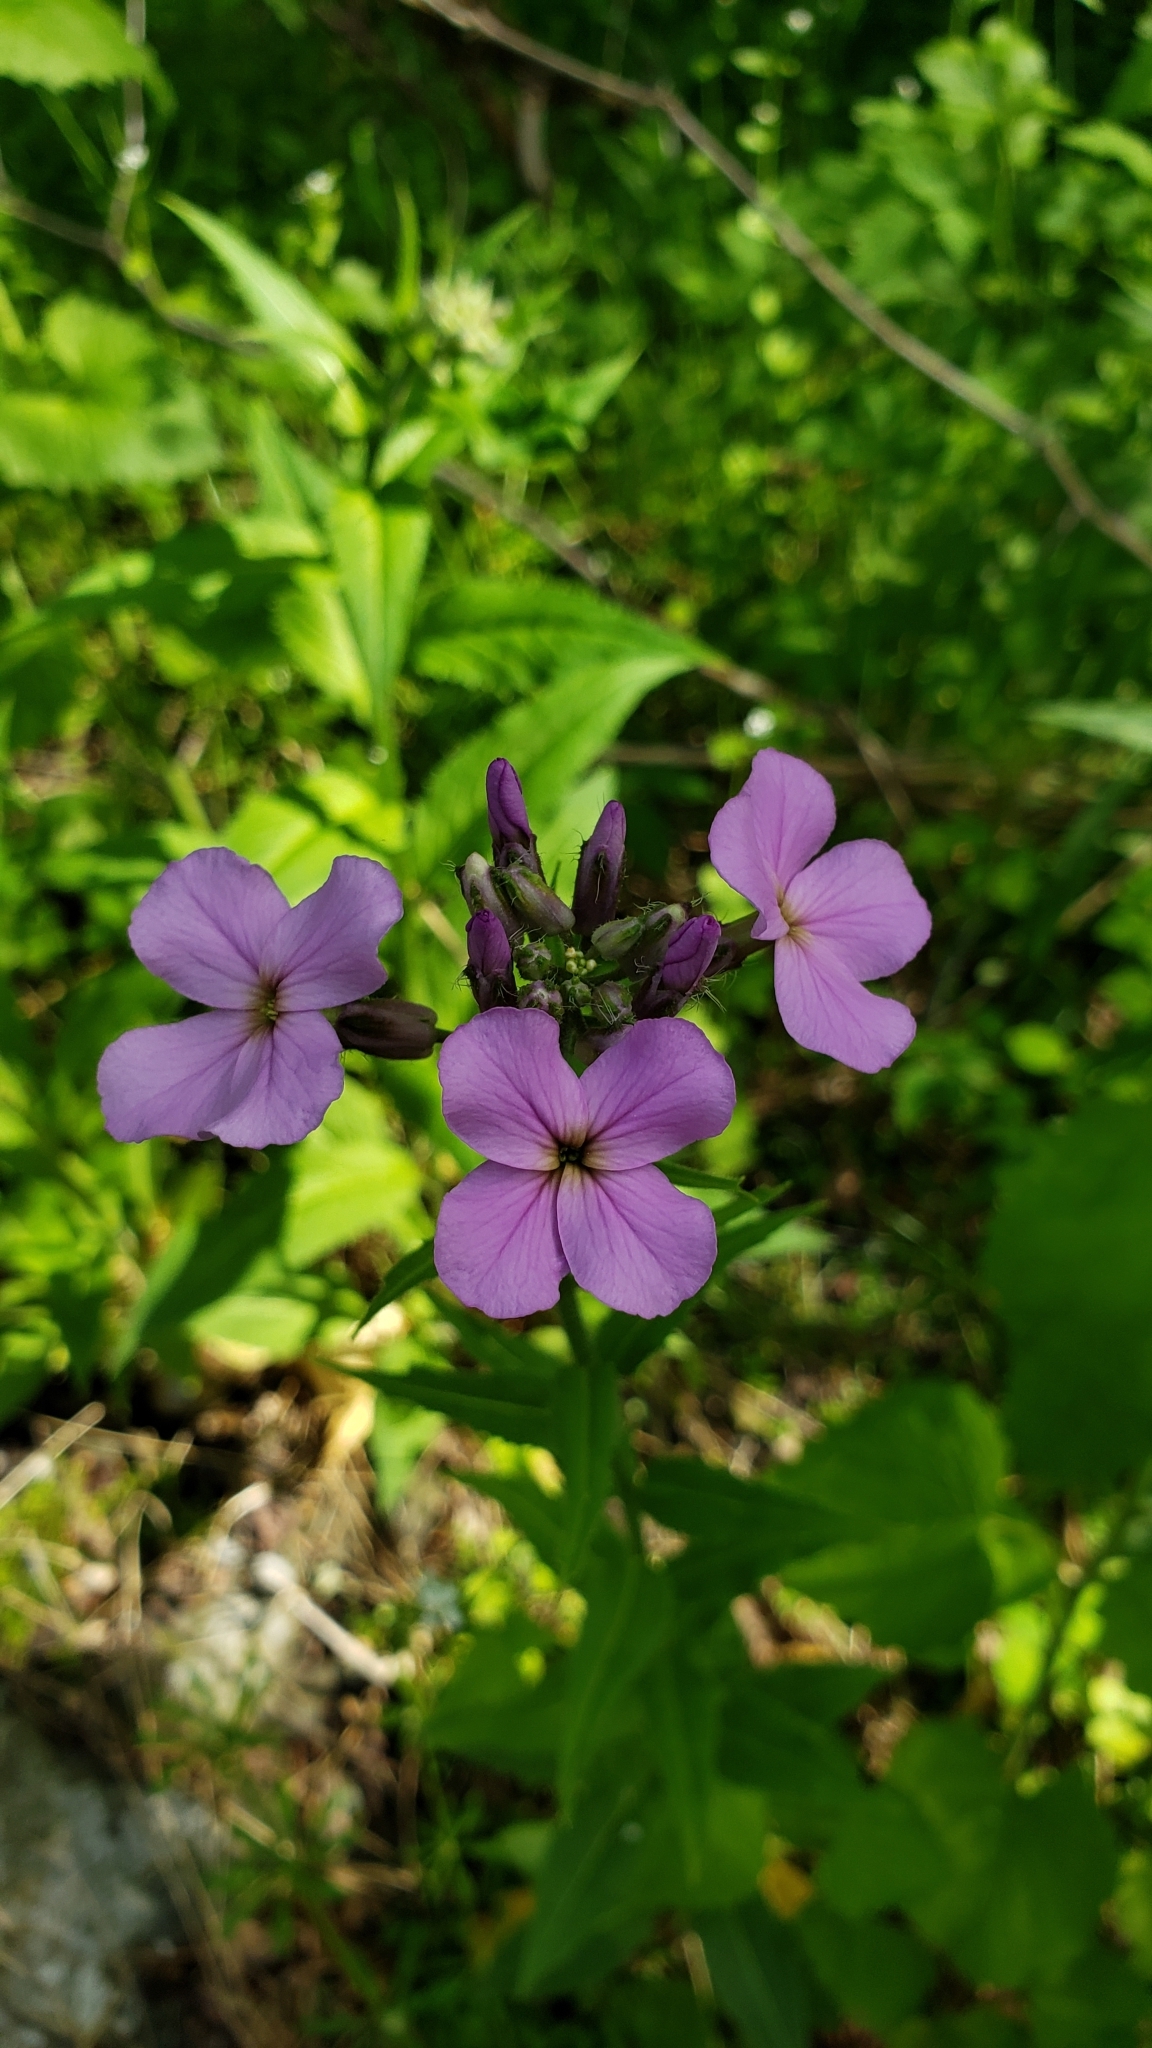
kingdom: Plantae
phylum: Tracheophyta
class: Magnoliopsida
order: Brassicales
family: Brassicaceae
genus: Hesperis
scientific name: Hesperis matronalis
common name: Dame's-violet
